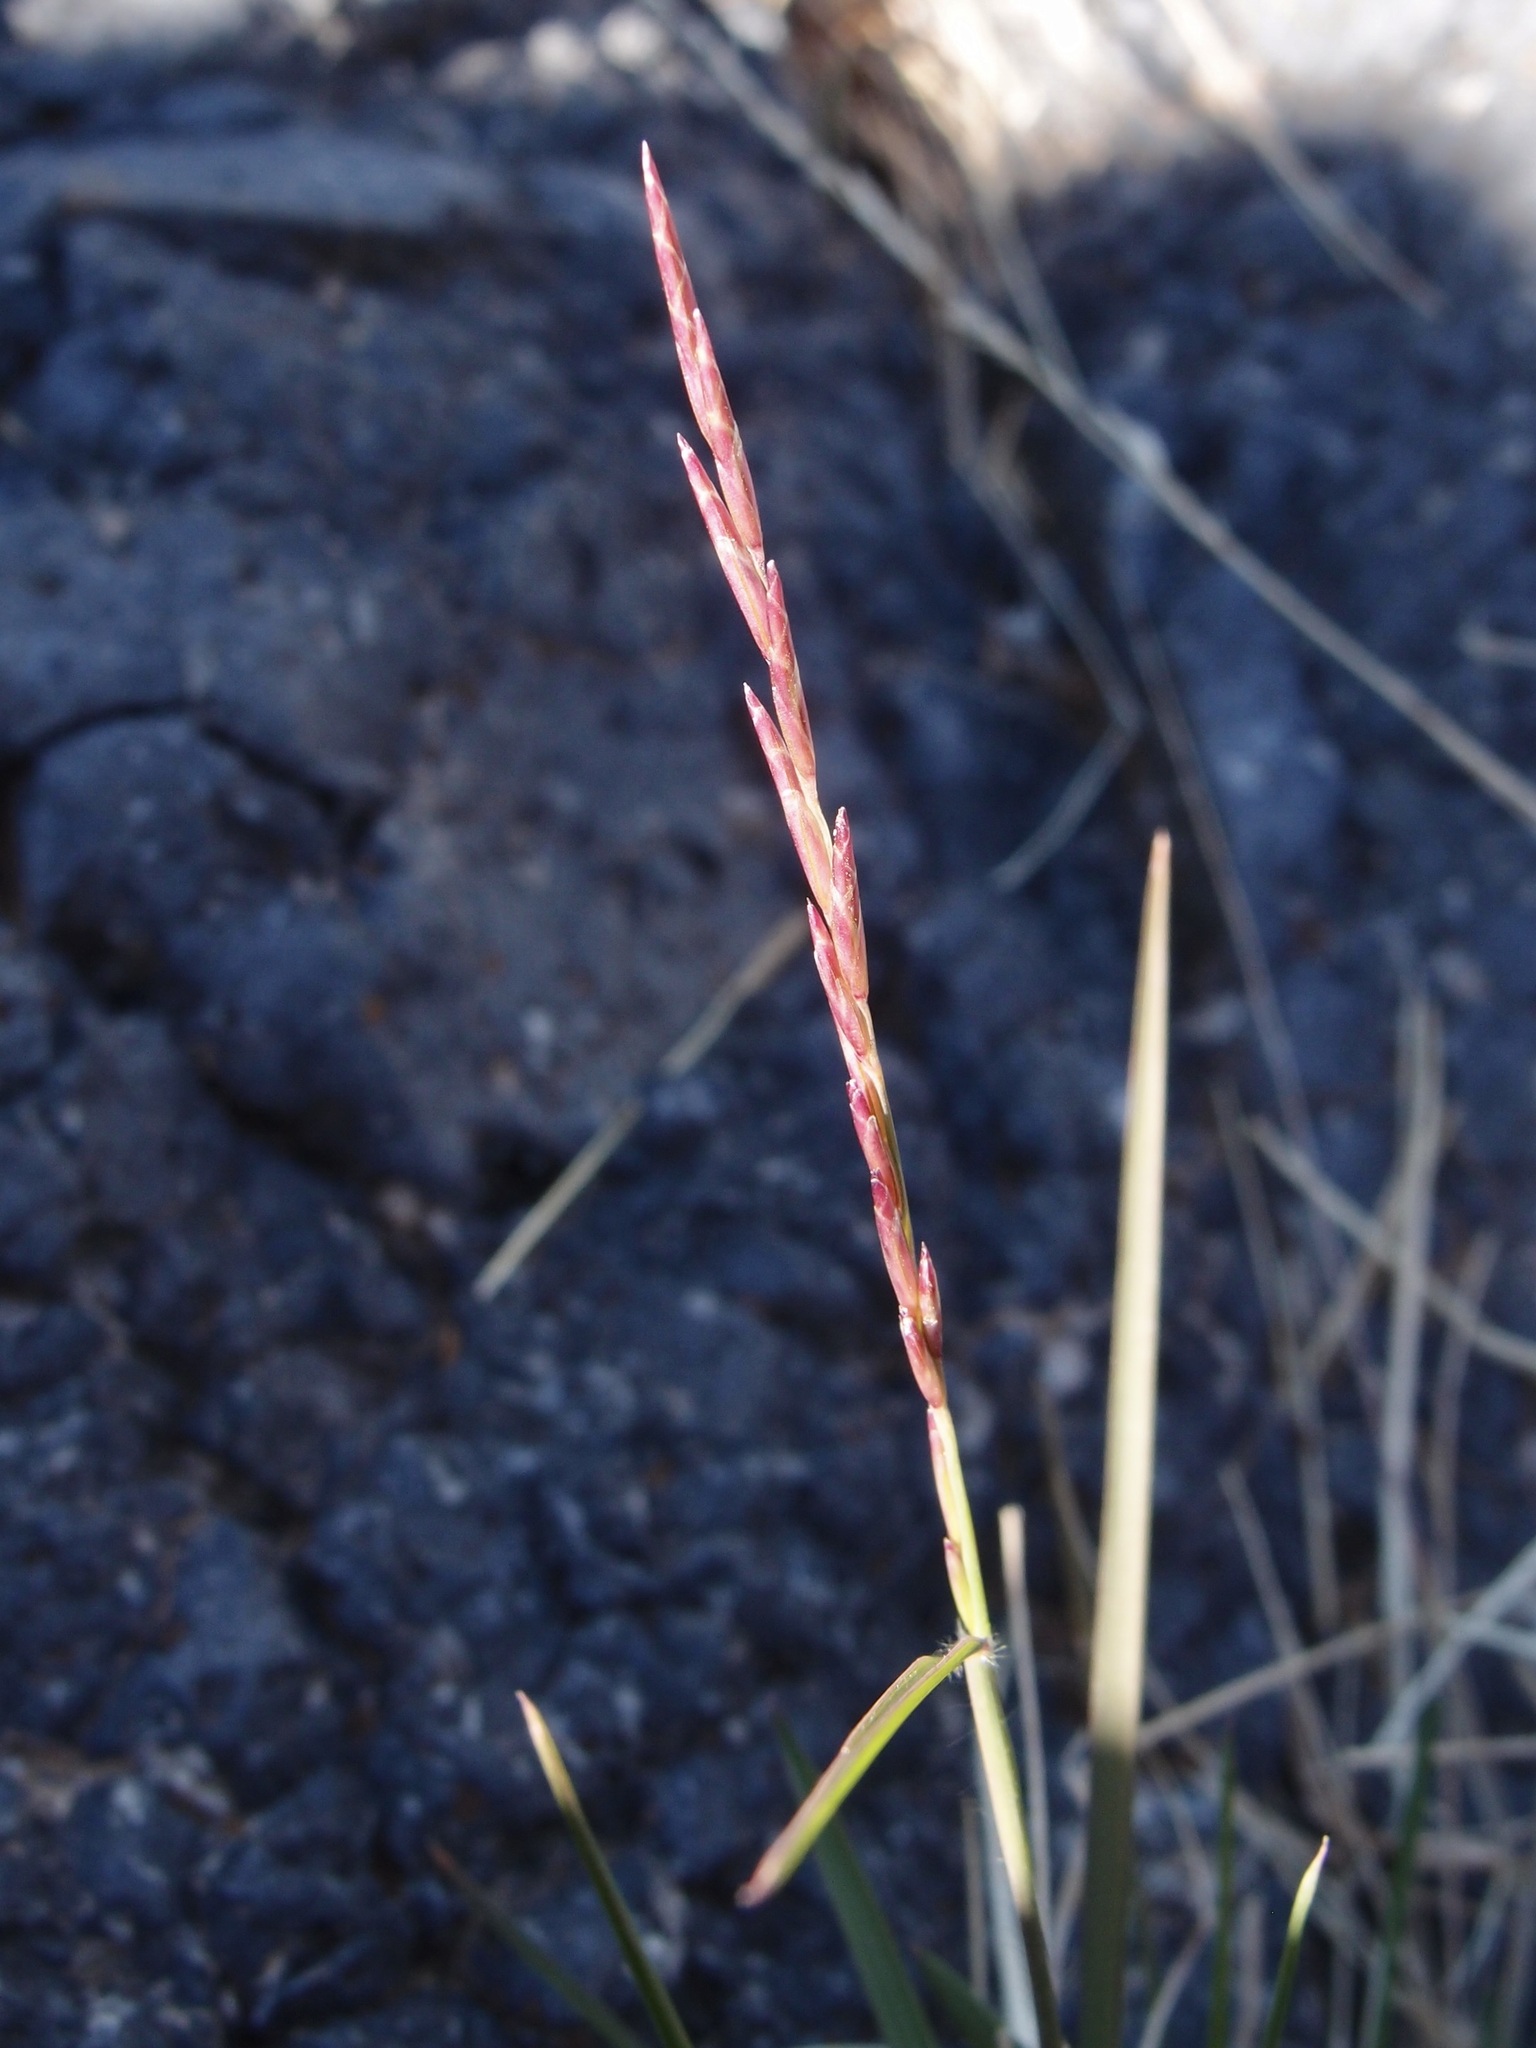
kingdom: Plantae
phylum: Tracheophyta
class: Liliopsida
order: Poales
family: Poaceae
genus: Tridentopsis
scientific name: Tridentopsis mutica
